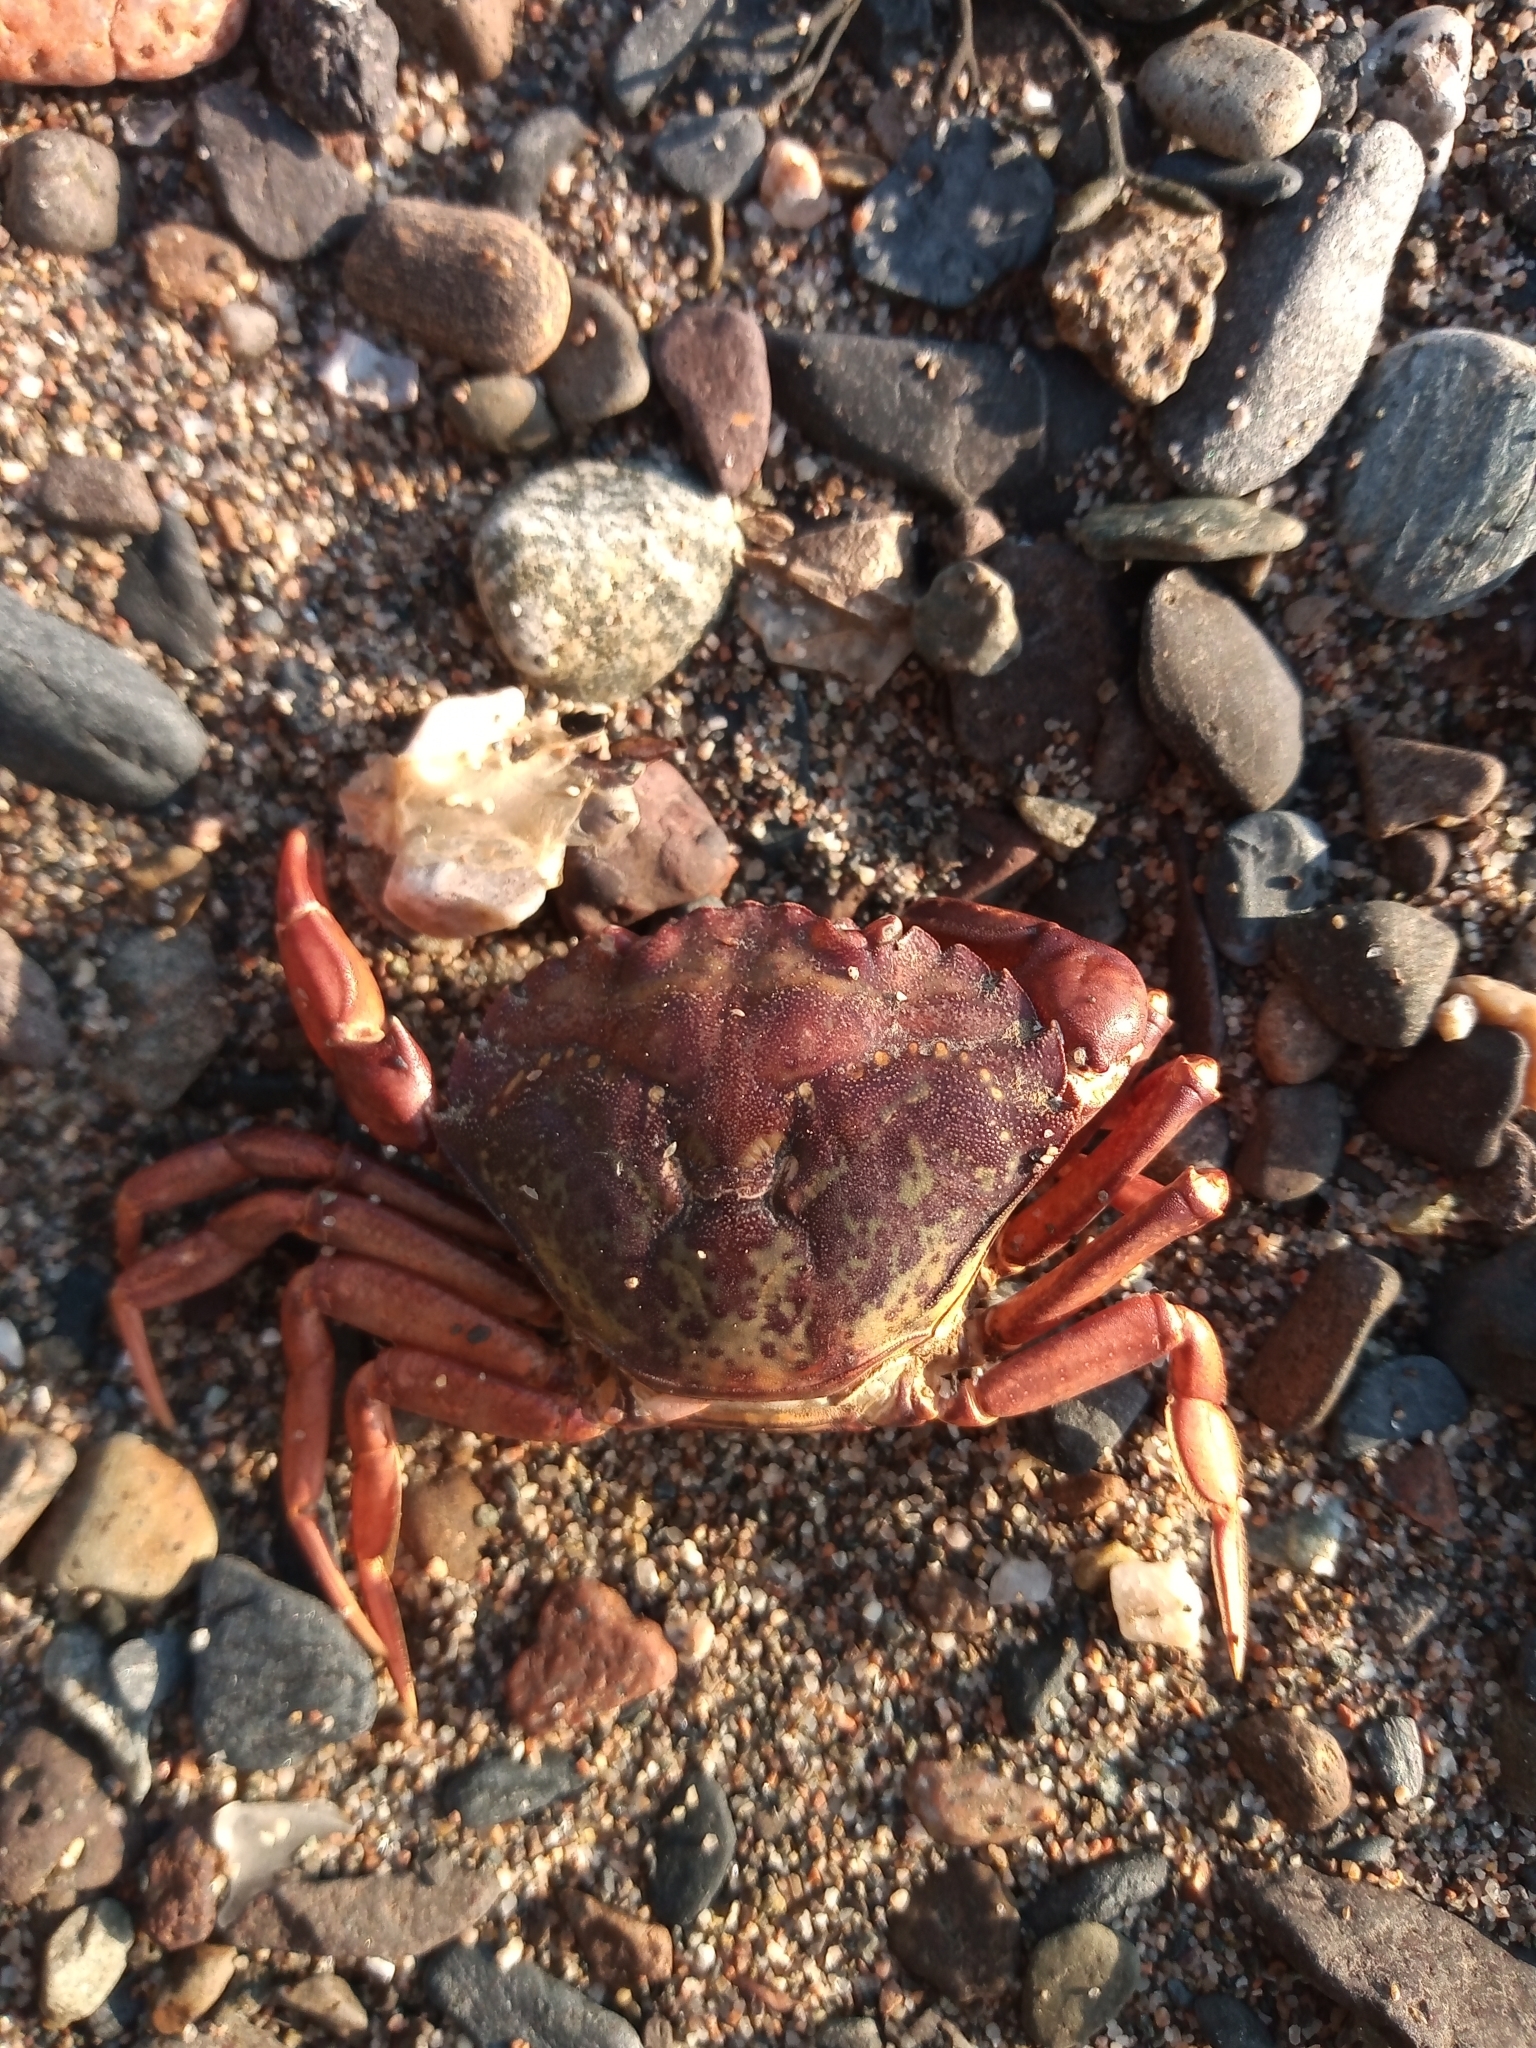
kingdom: Animalia
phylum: Arthropoda
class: Malacostraca
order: Decapoda
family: Carcinidae
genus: Carcinus
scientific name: Carcinus maenas
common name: European green crab
